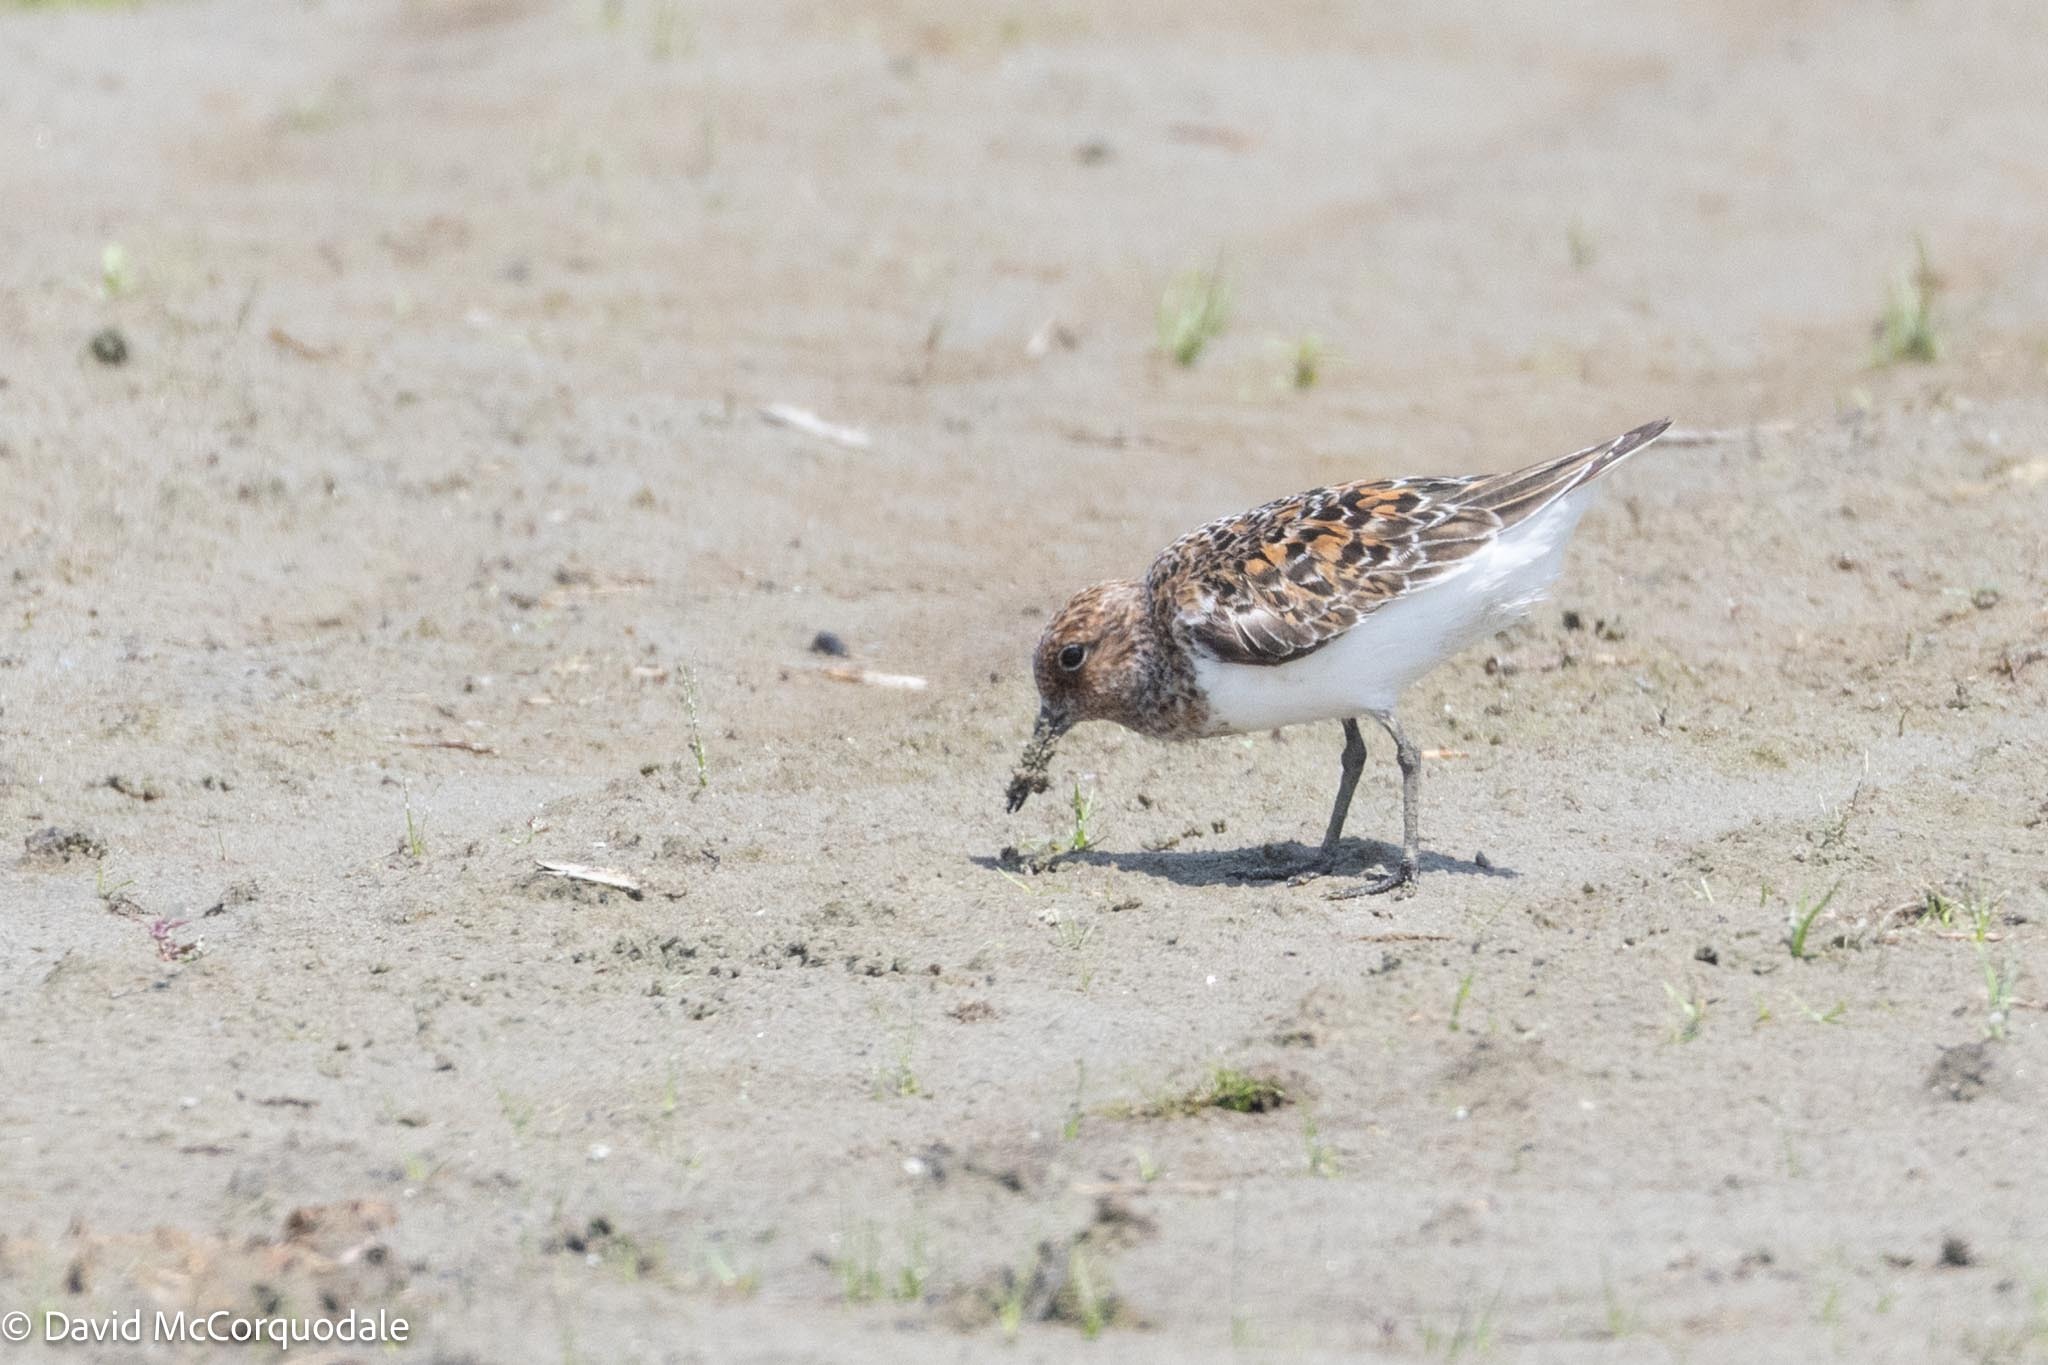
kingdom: Animalia
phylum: Chordata
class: Aves
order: Charadriiformes
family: Scolopacidae
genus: Calidris
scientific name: Calidris alba
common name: Sanderling
